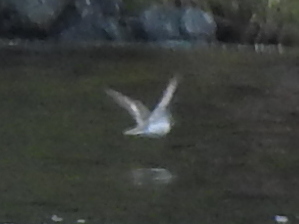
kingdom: Animalia
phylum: Chordata
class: Aves
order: Charadriiformes
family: Scolopacidae
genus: Actitis
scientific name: Actitis hypoleucos
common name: Common sandpiper
